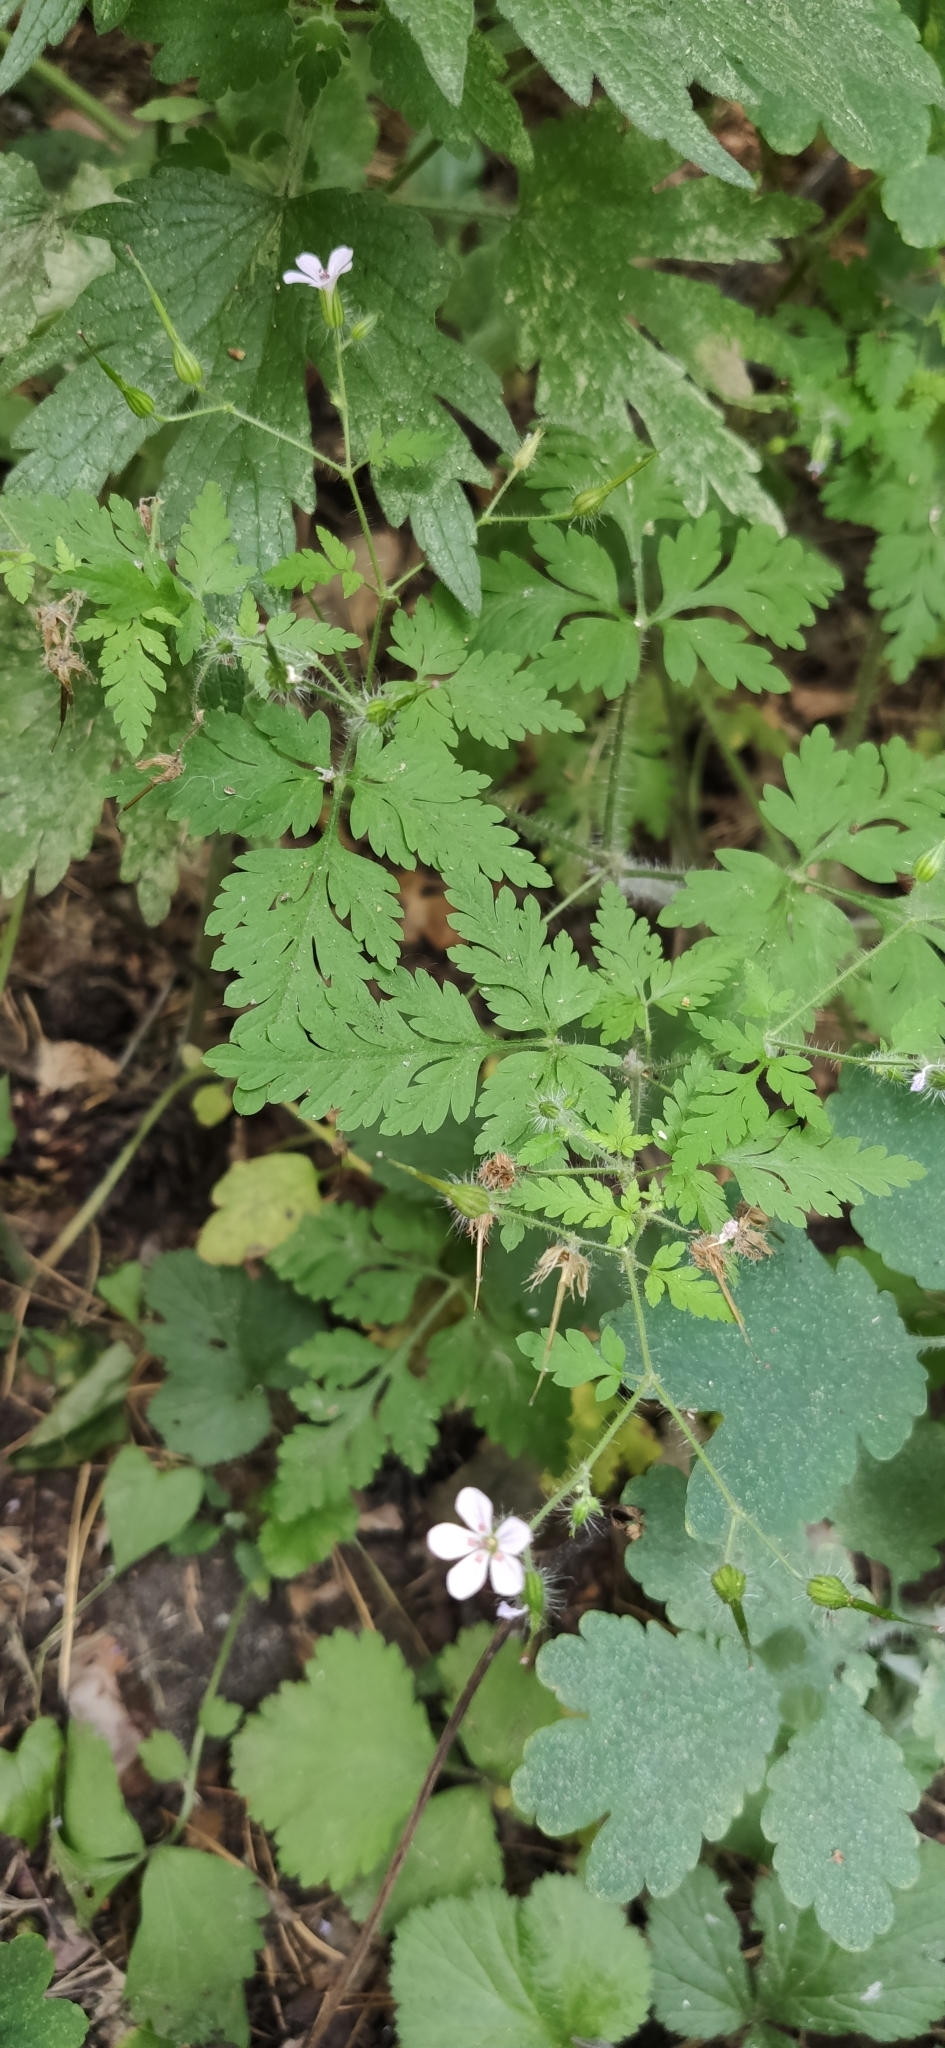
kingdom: Plantae
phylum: Tracheophyta
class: Magnoliopsida
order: Geraniales
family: Geraniaceae
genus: Geranium
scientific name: Geranium robertianum
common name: Herb-robert
